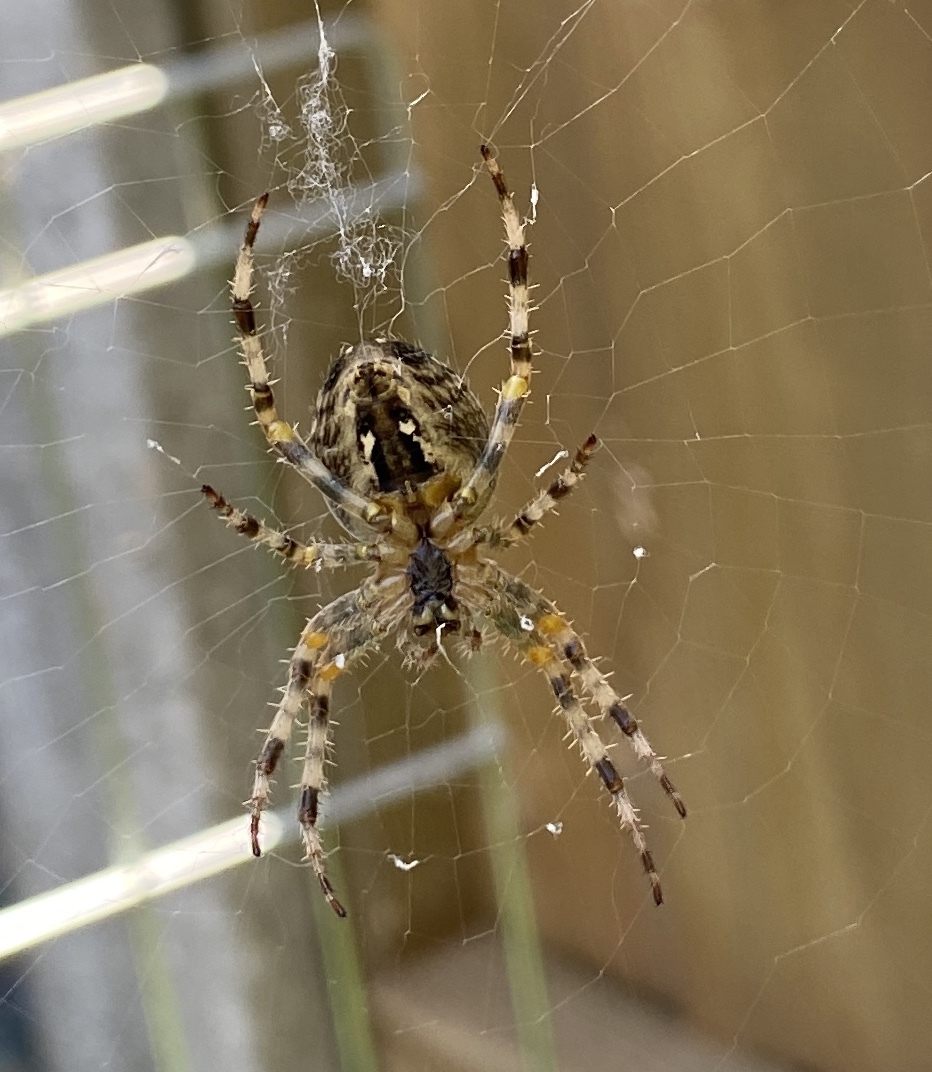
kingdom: Animalia
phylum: Arthropoda
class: Arachnida
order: Araneae
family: Araneidae
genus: Araneus
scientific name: Araneus diadematus
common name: Cross orbweaver
